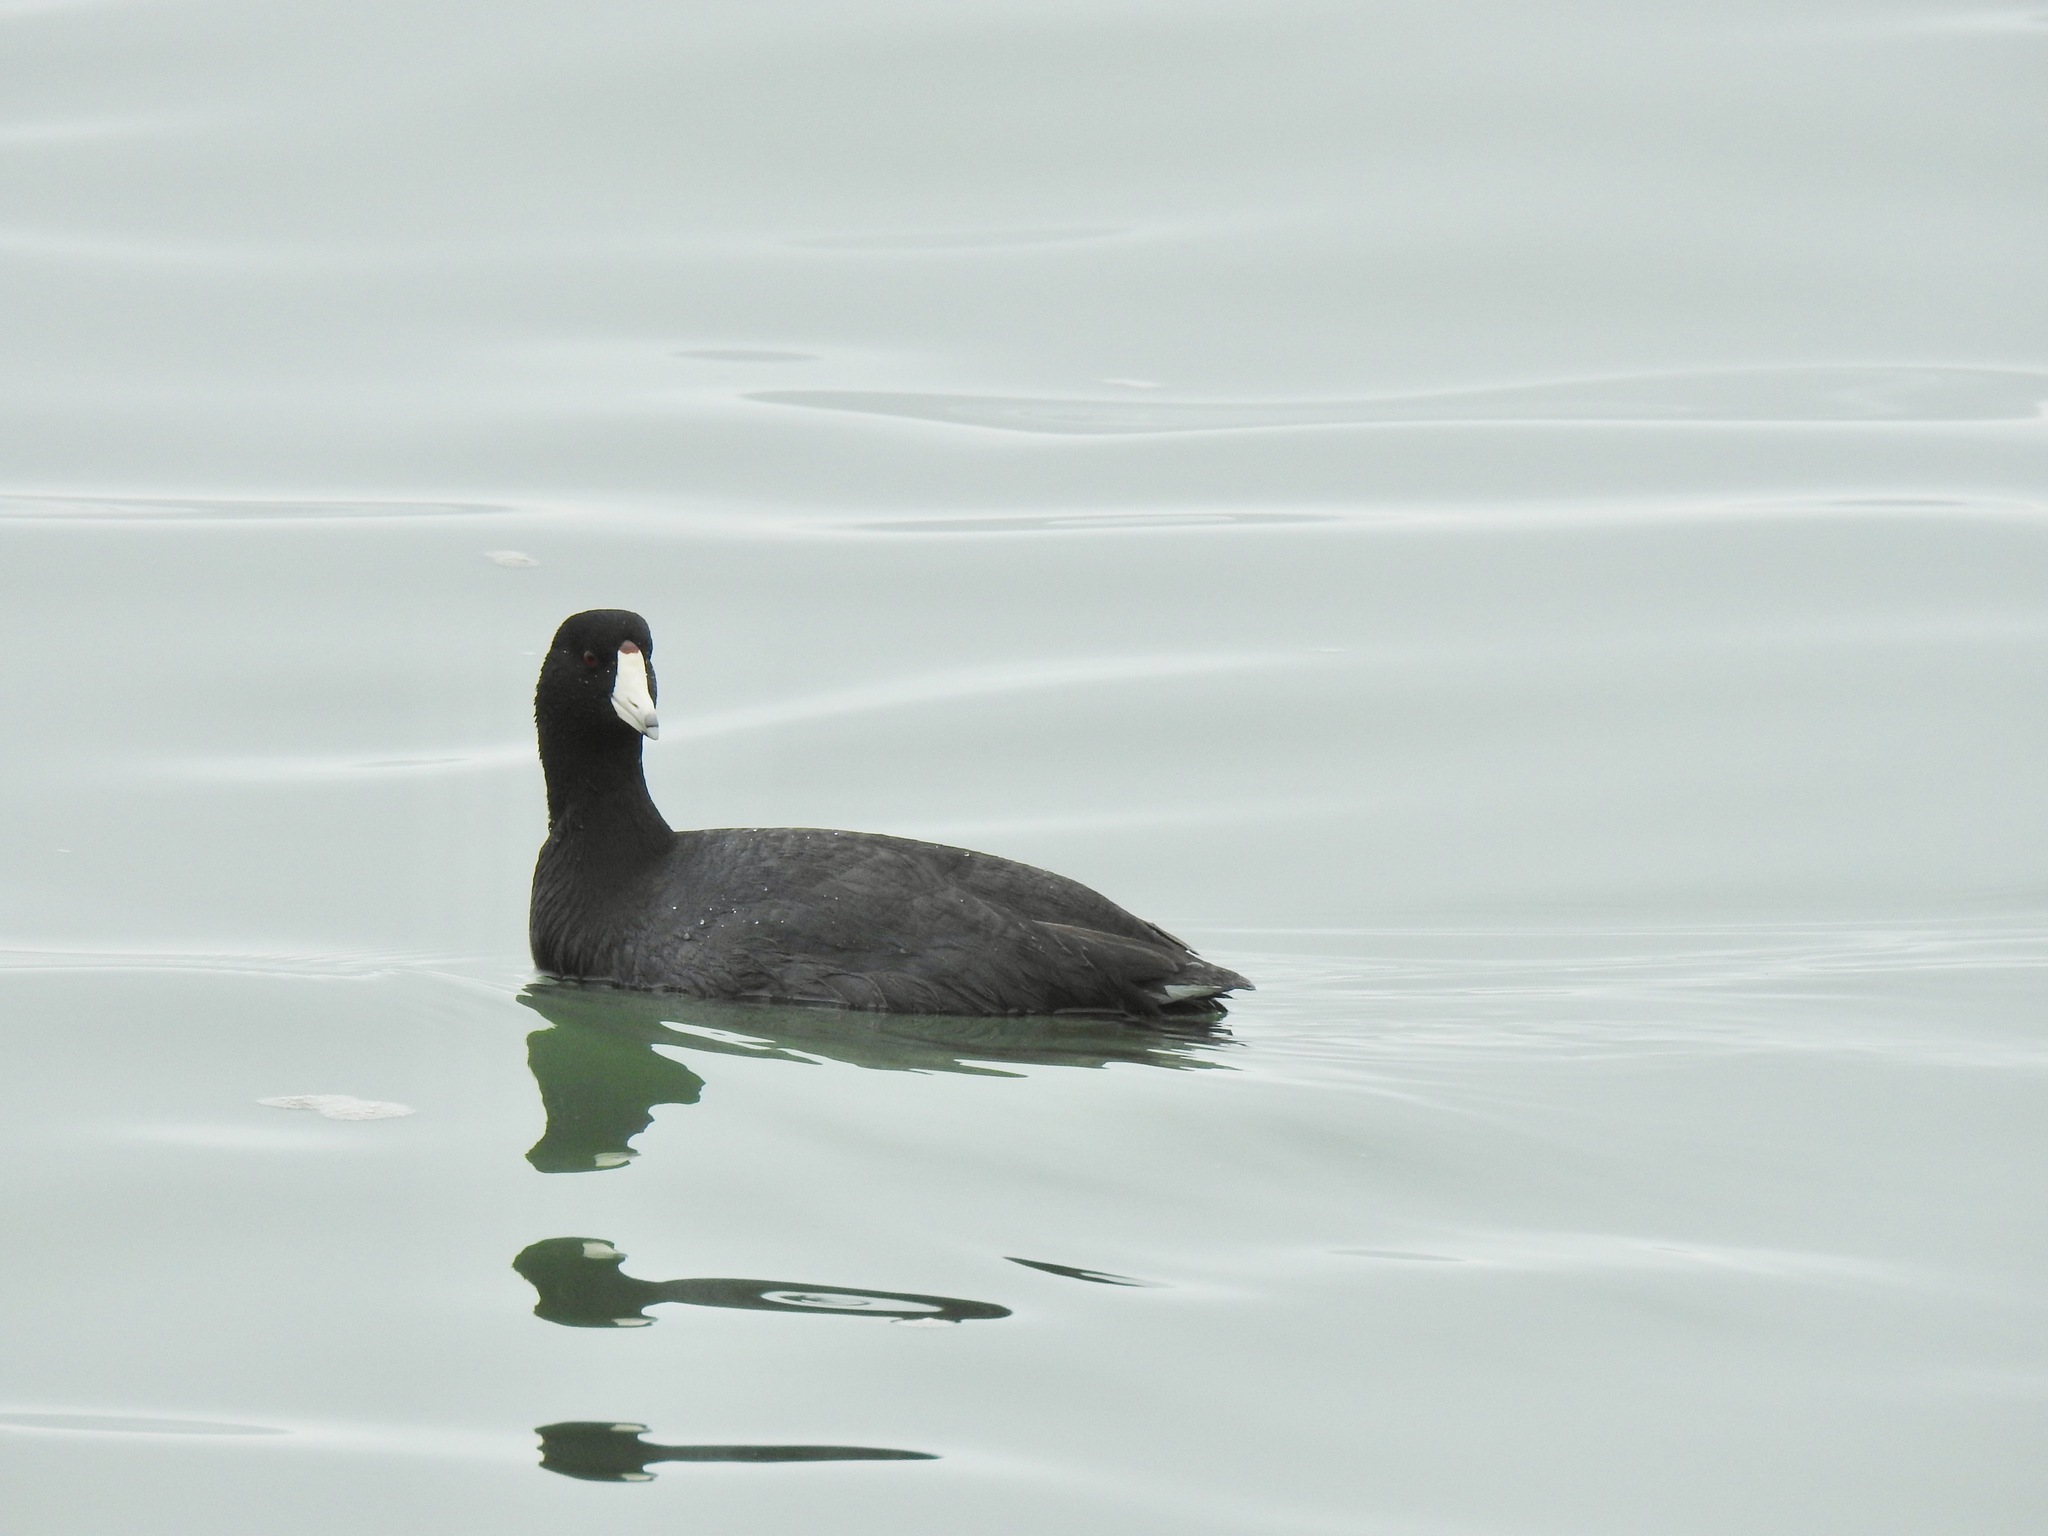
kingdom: Animalia
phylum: Chordata
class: Aves
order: Gruiformes
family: Rallidae
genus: Fulica
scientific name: Fulica americana
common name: American coot
